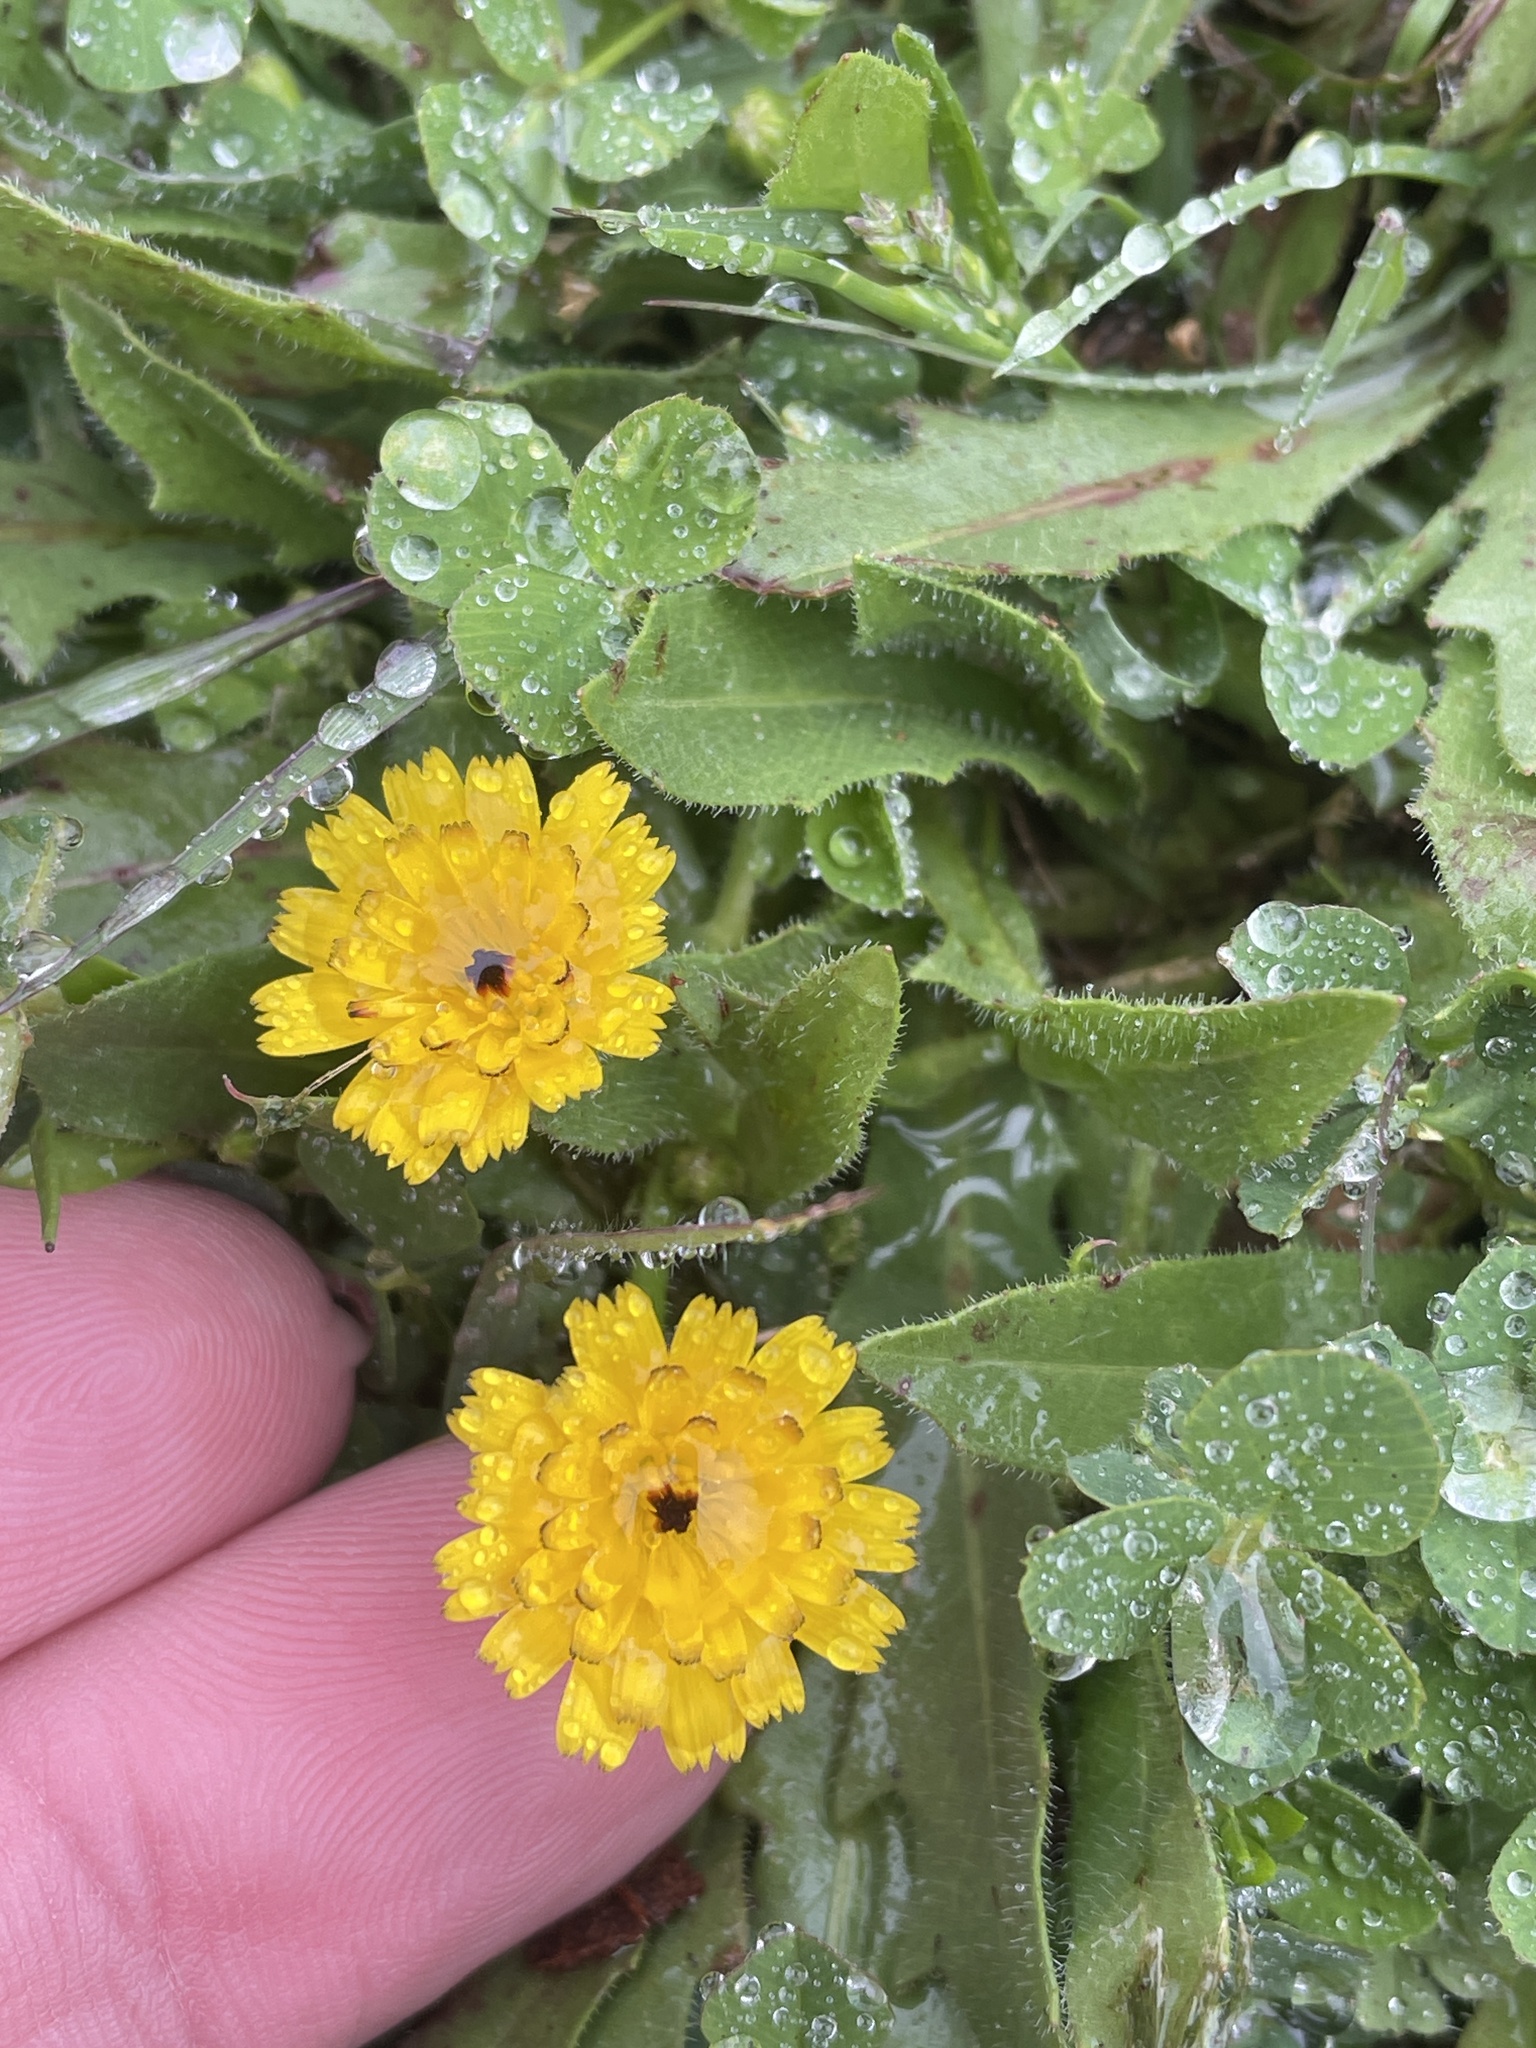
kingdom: Plantae
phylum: Tracheophyta
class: Magnoliopsida
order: Asterales
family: Asteraceae
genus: Hedypnois
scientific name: Hedypnois rhagadioloides
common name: Cretan weed
